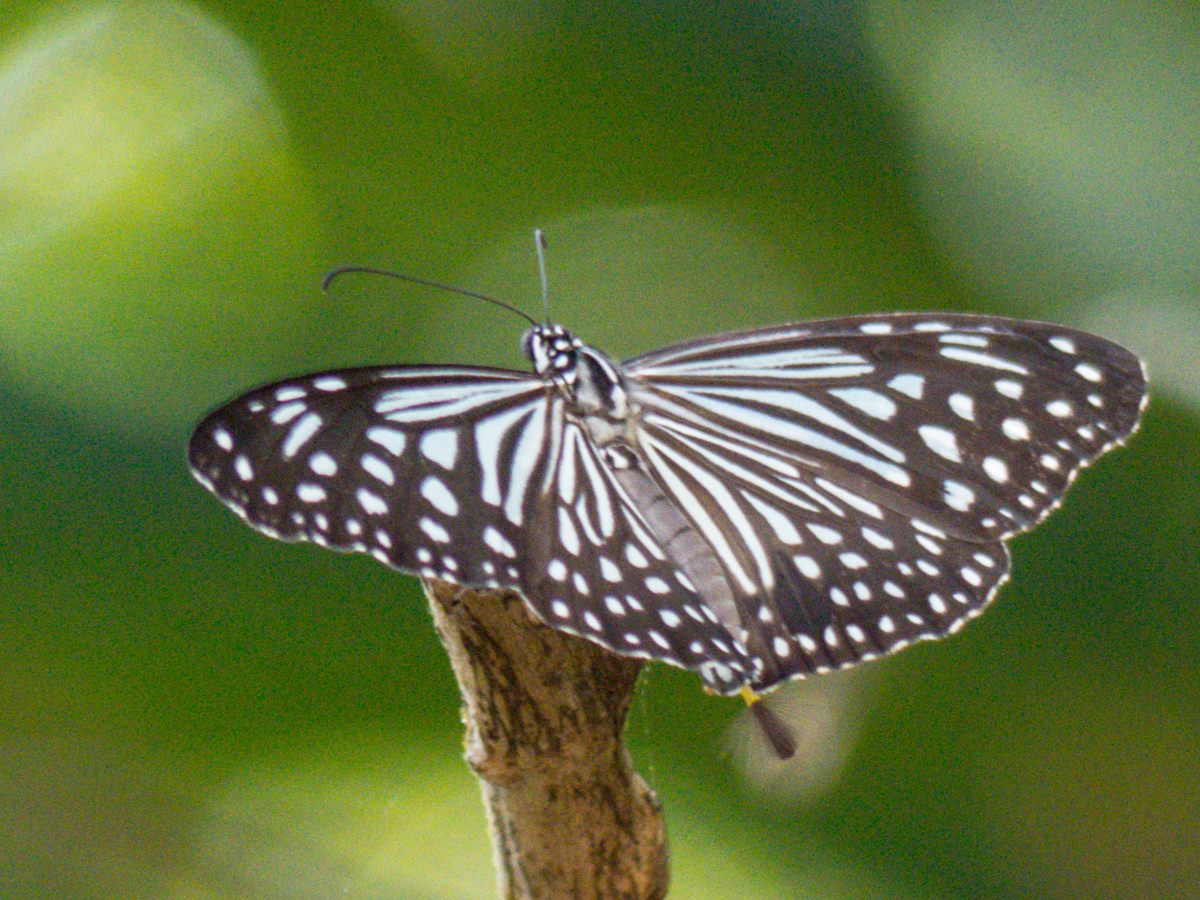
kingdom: Animalia
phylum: Arthropoda
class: Insecta
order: Lepidoptera
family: Nymphalidae
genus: Parantica
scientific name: Parantica agleoides
